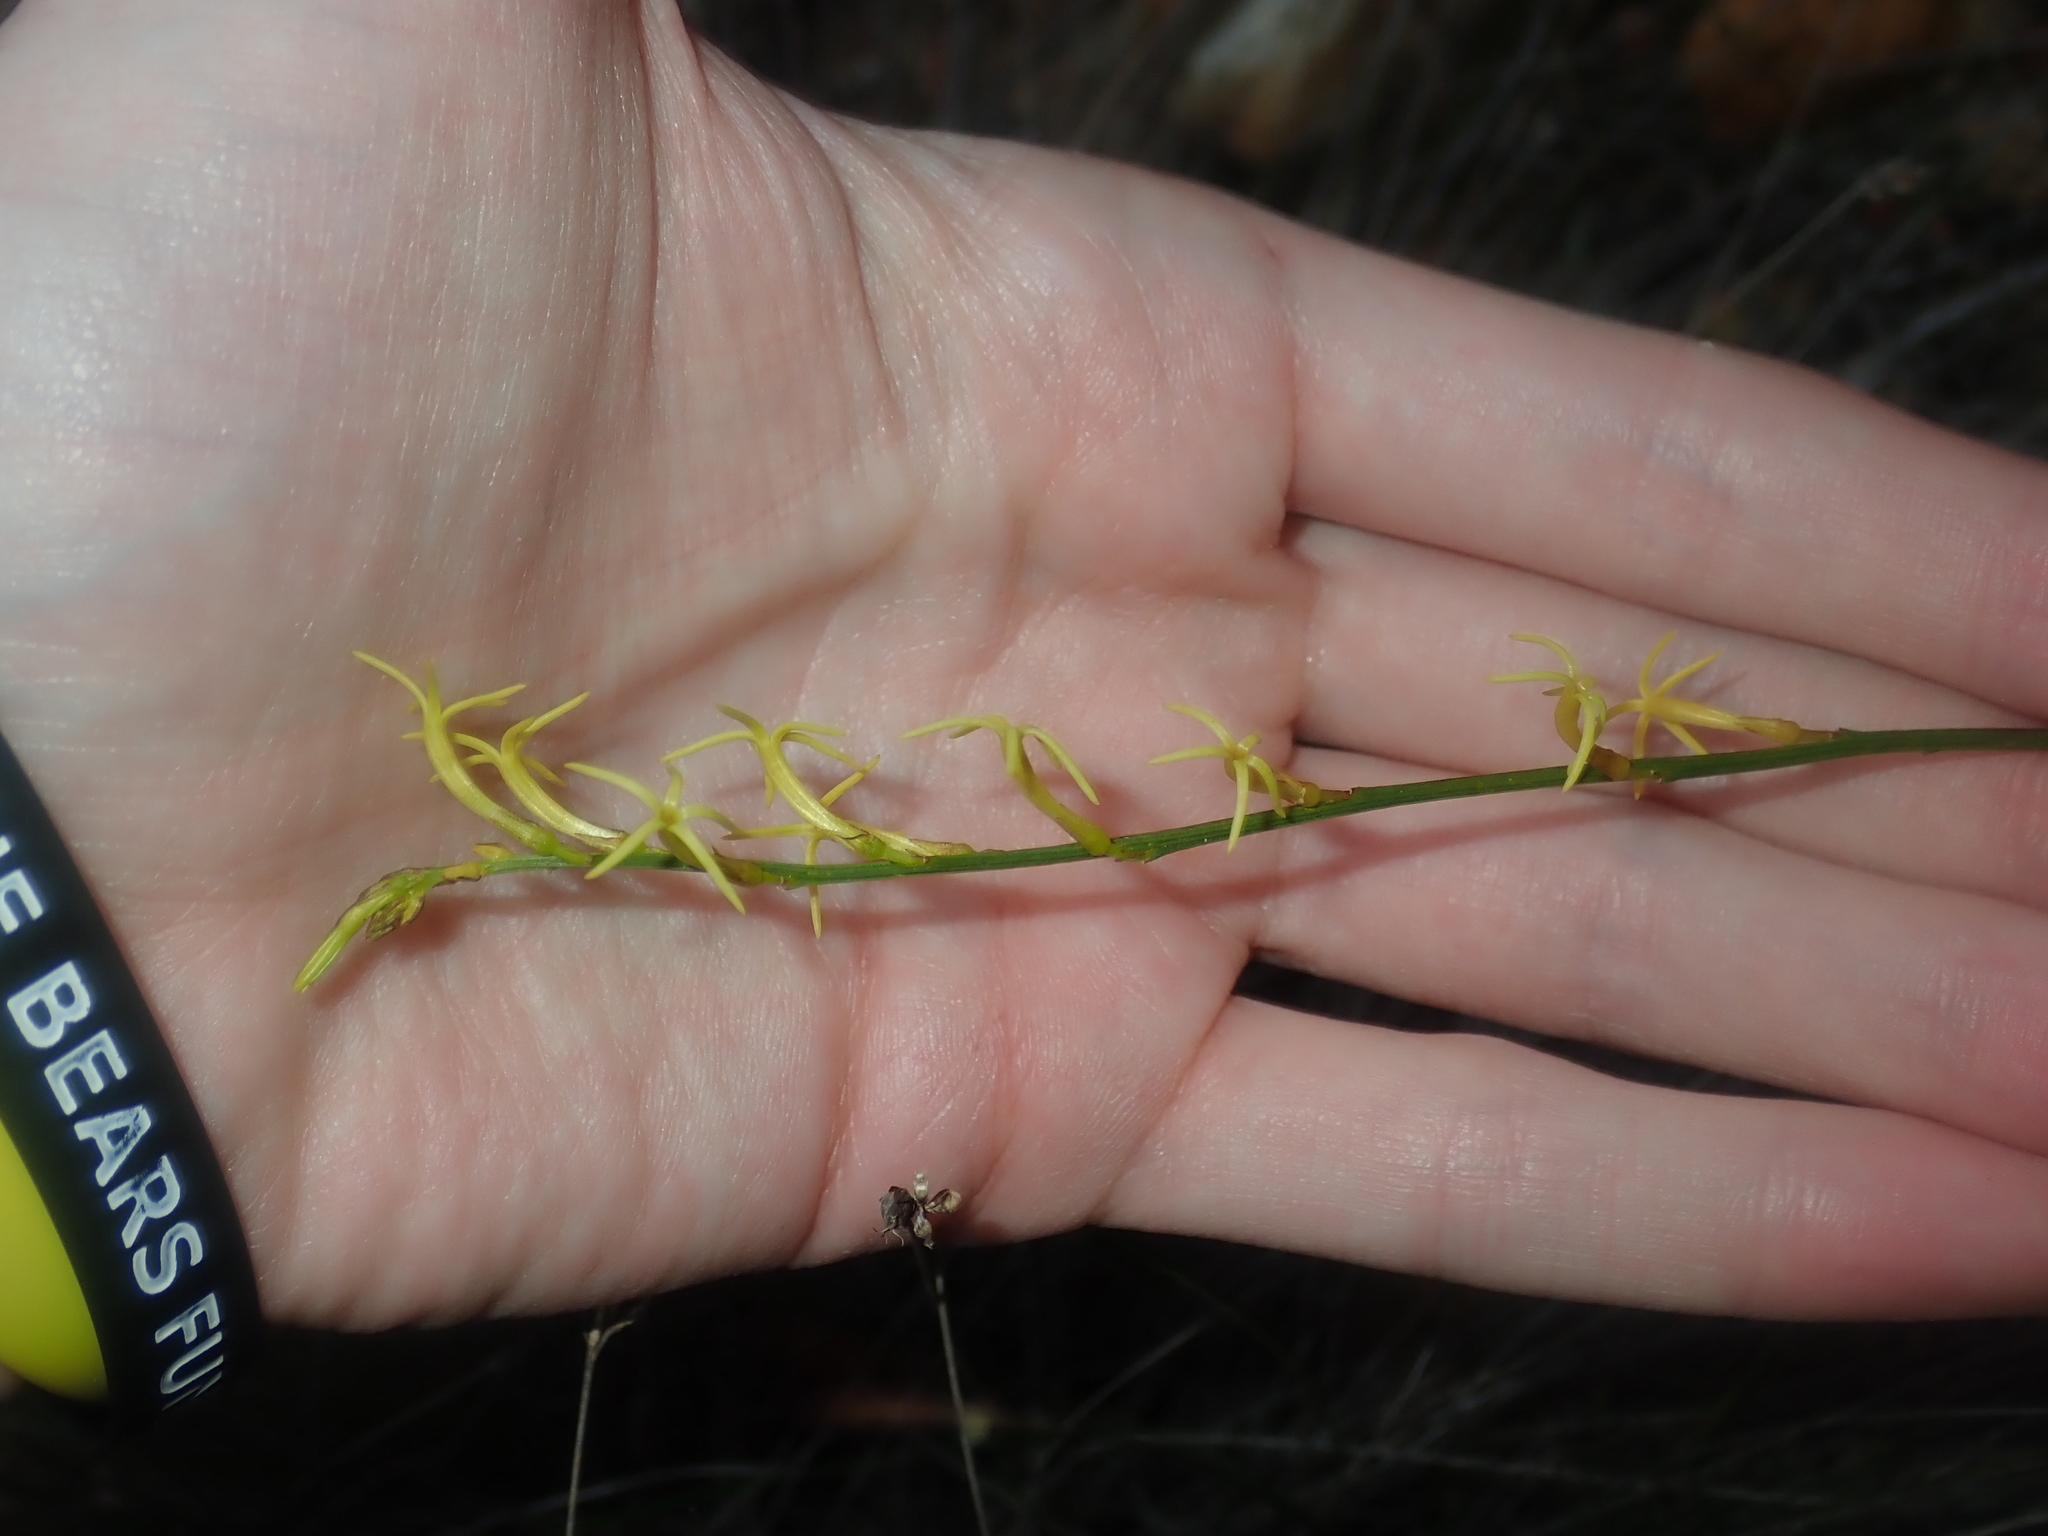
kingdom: Plantae
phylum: Tracheophyta
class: Magnoliopsida
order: Celastrales
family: Celastraceae
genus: Tripterococcus
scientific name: Tripterococcus brunonis
